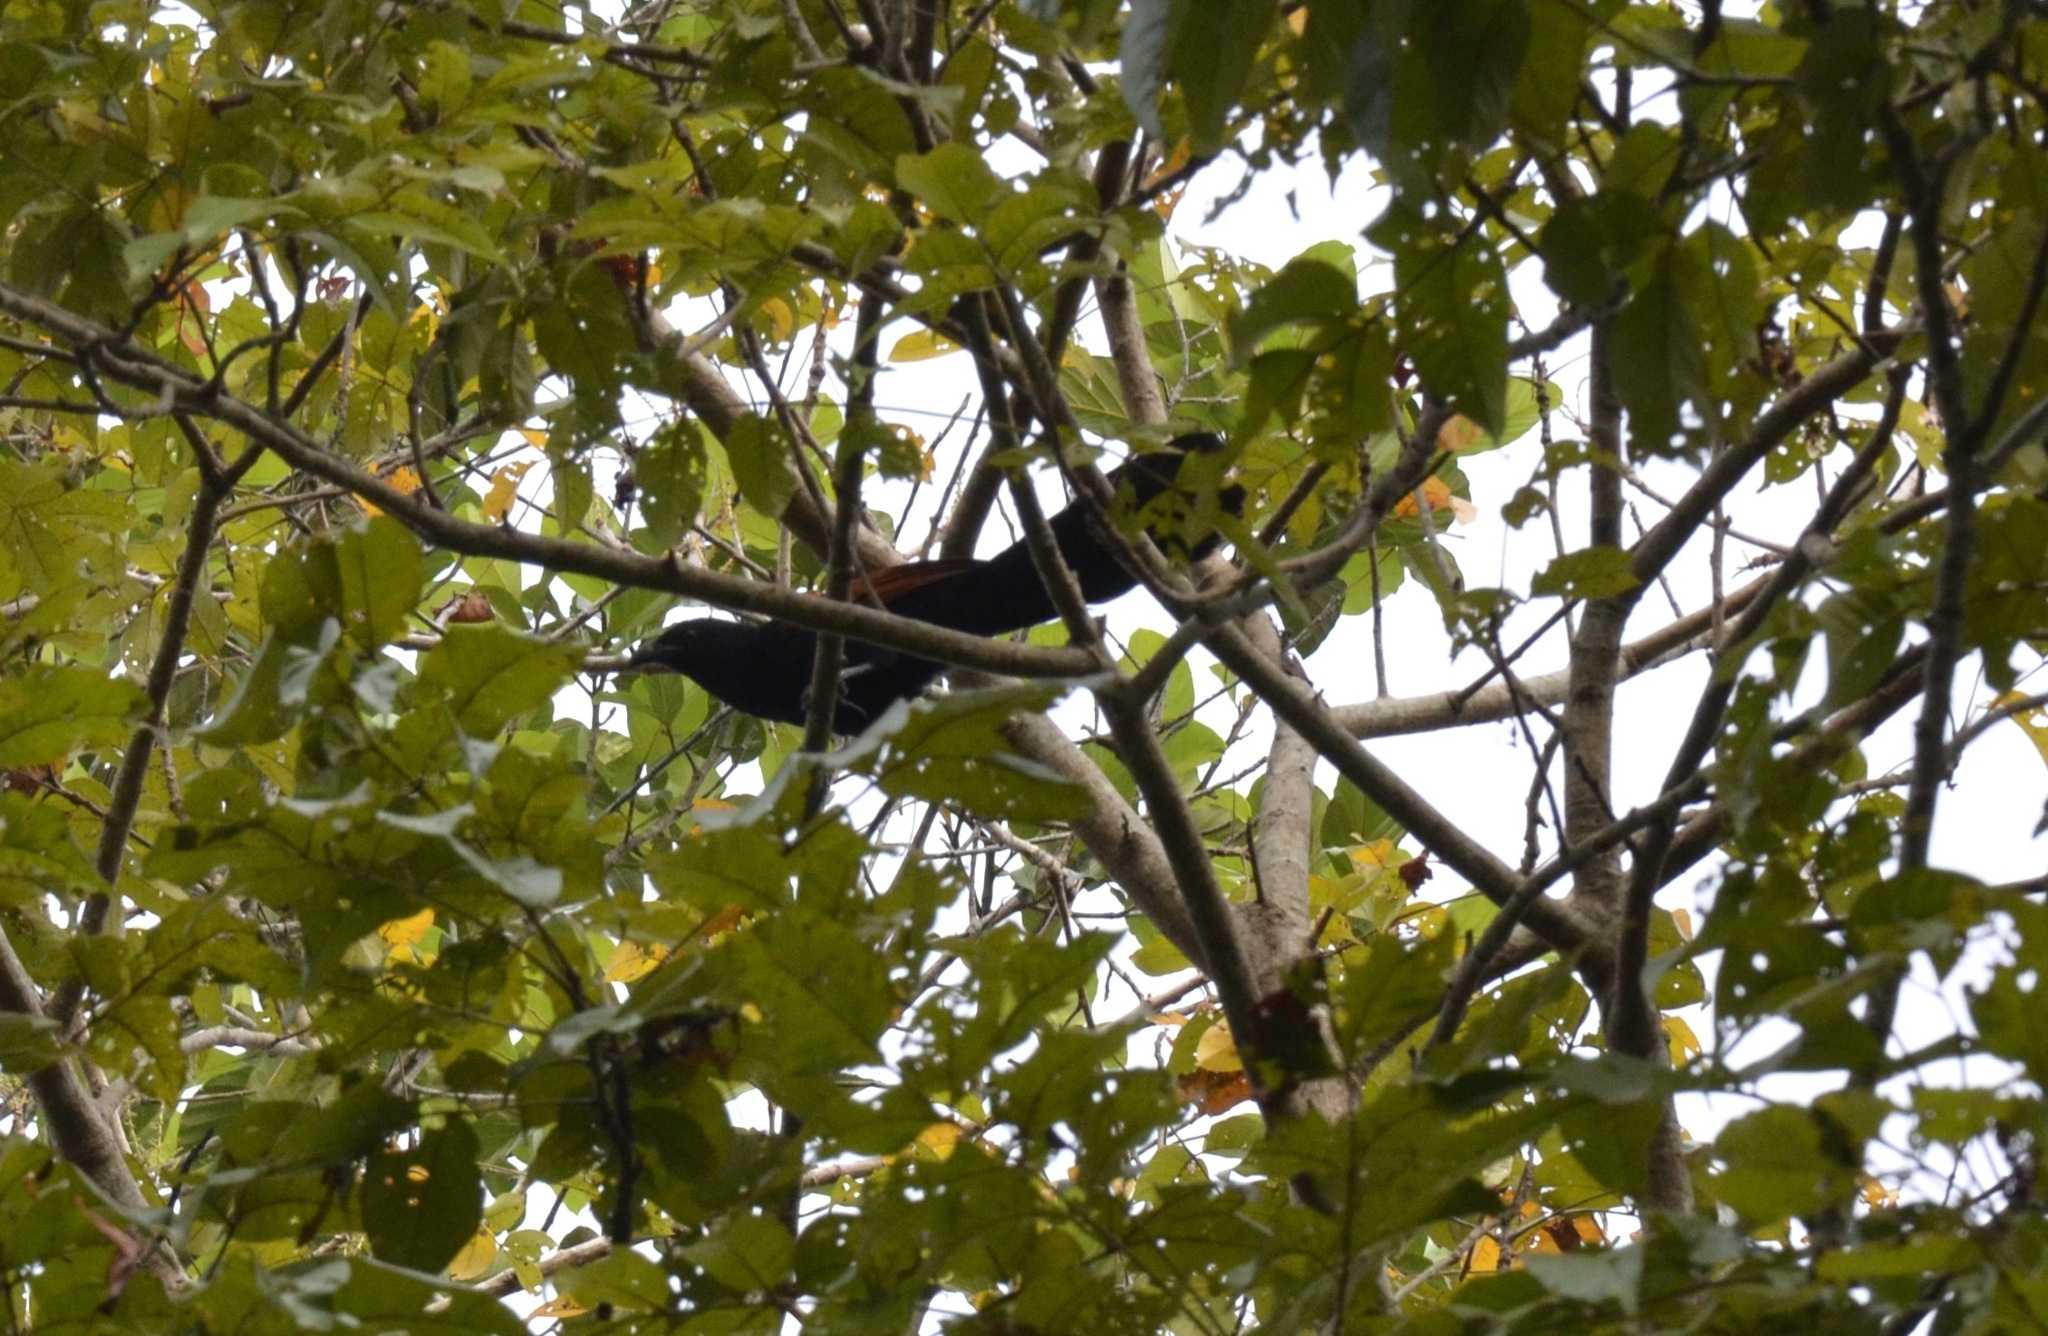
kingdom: Animalia
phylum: Chordata
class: Aves
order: Cuculiformes
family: Cuculidae
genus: Centropus
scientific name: Centropus sinensis
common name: Greater coucal
